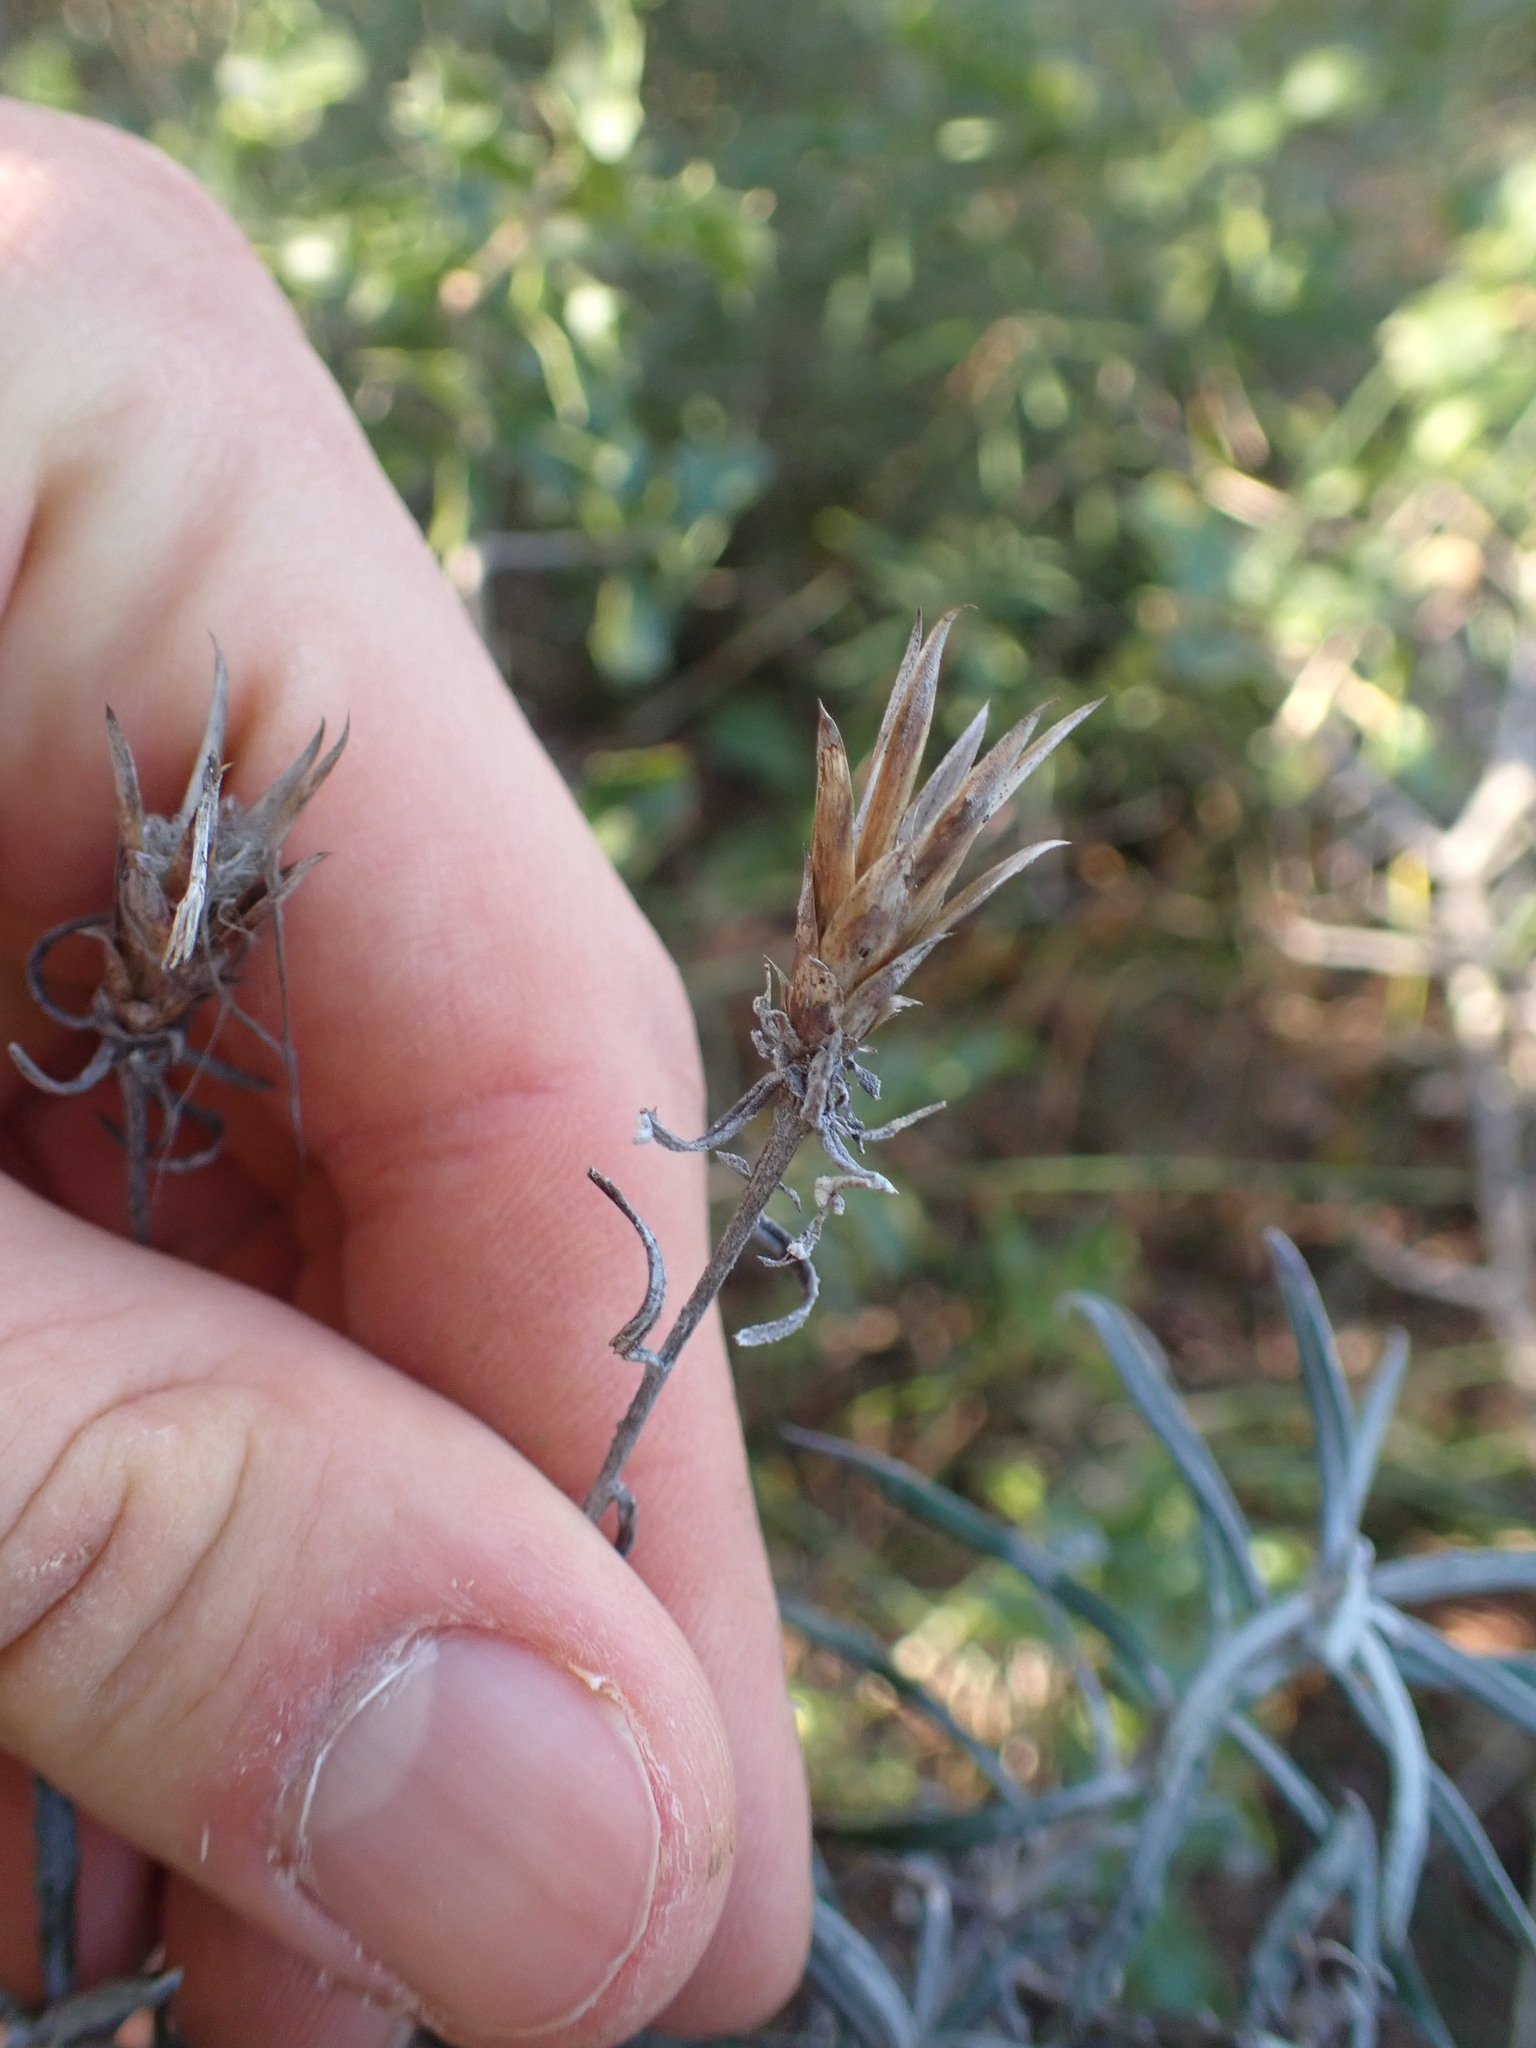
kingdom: Plantae
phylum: Tracheophyta
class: Magnoliopsida
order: Asterales
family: Asteraceae
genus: Staehelina
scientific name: Staehelina dubia
